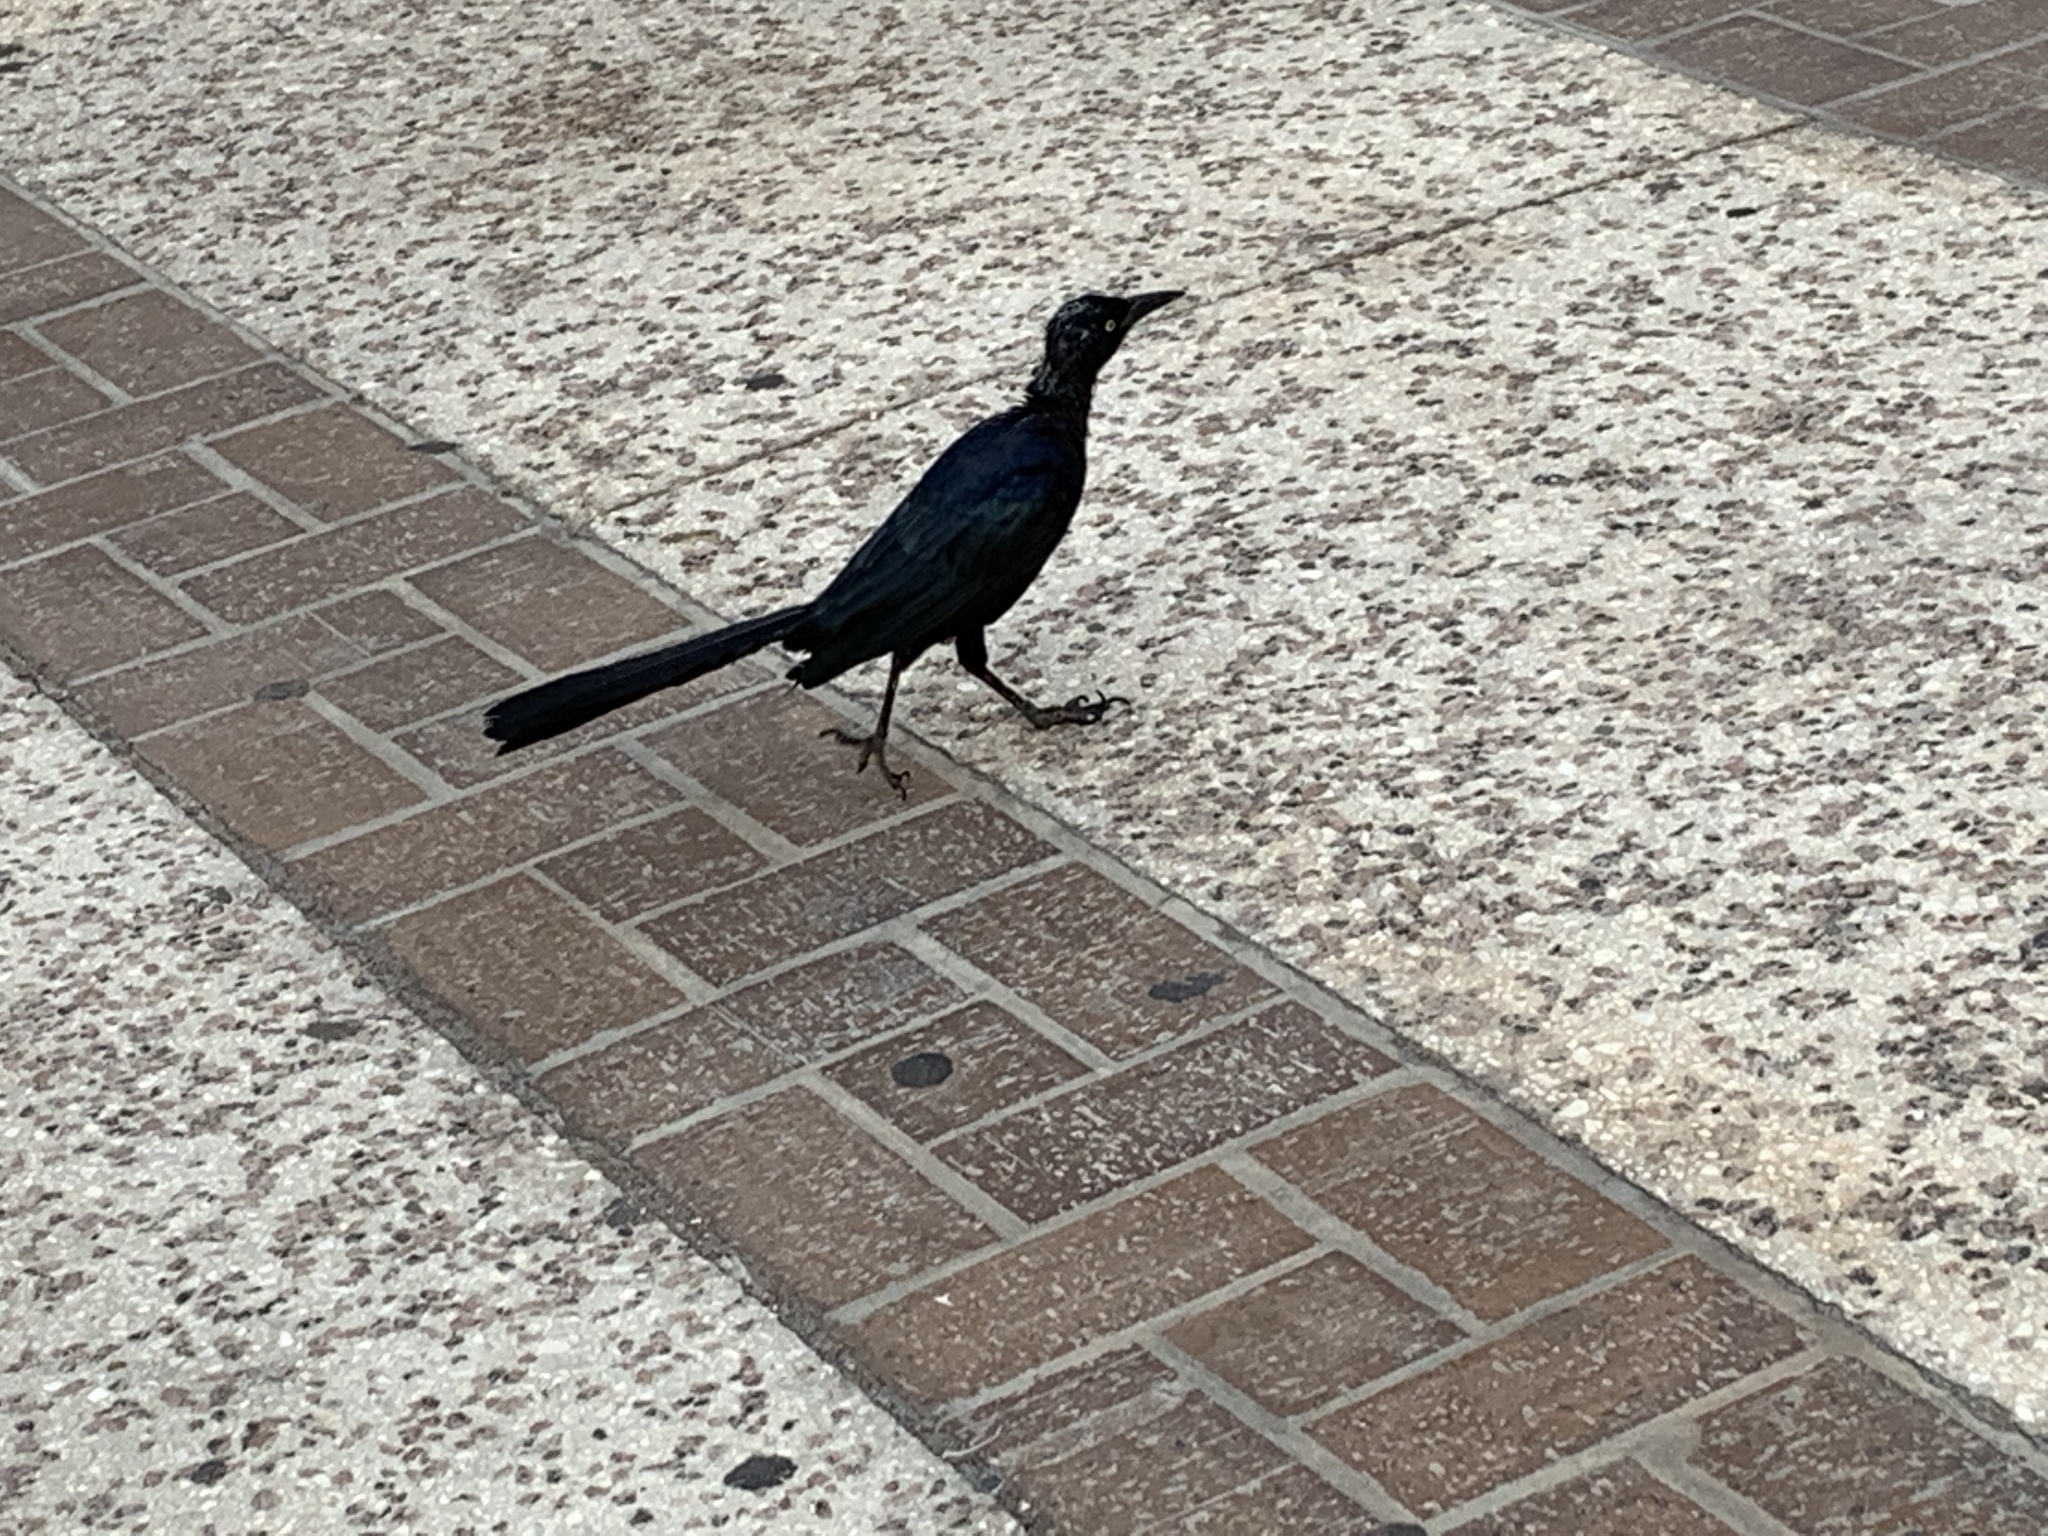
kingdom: Animalia
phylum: Chordata
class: Aves
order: Passeriformes
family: Icteridae
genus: Quiscalus
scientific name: Quiscalus mexicanus
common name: Great-tailed grackle
